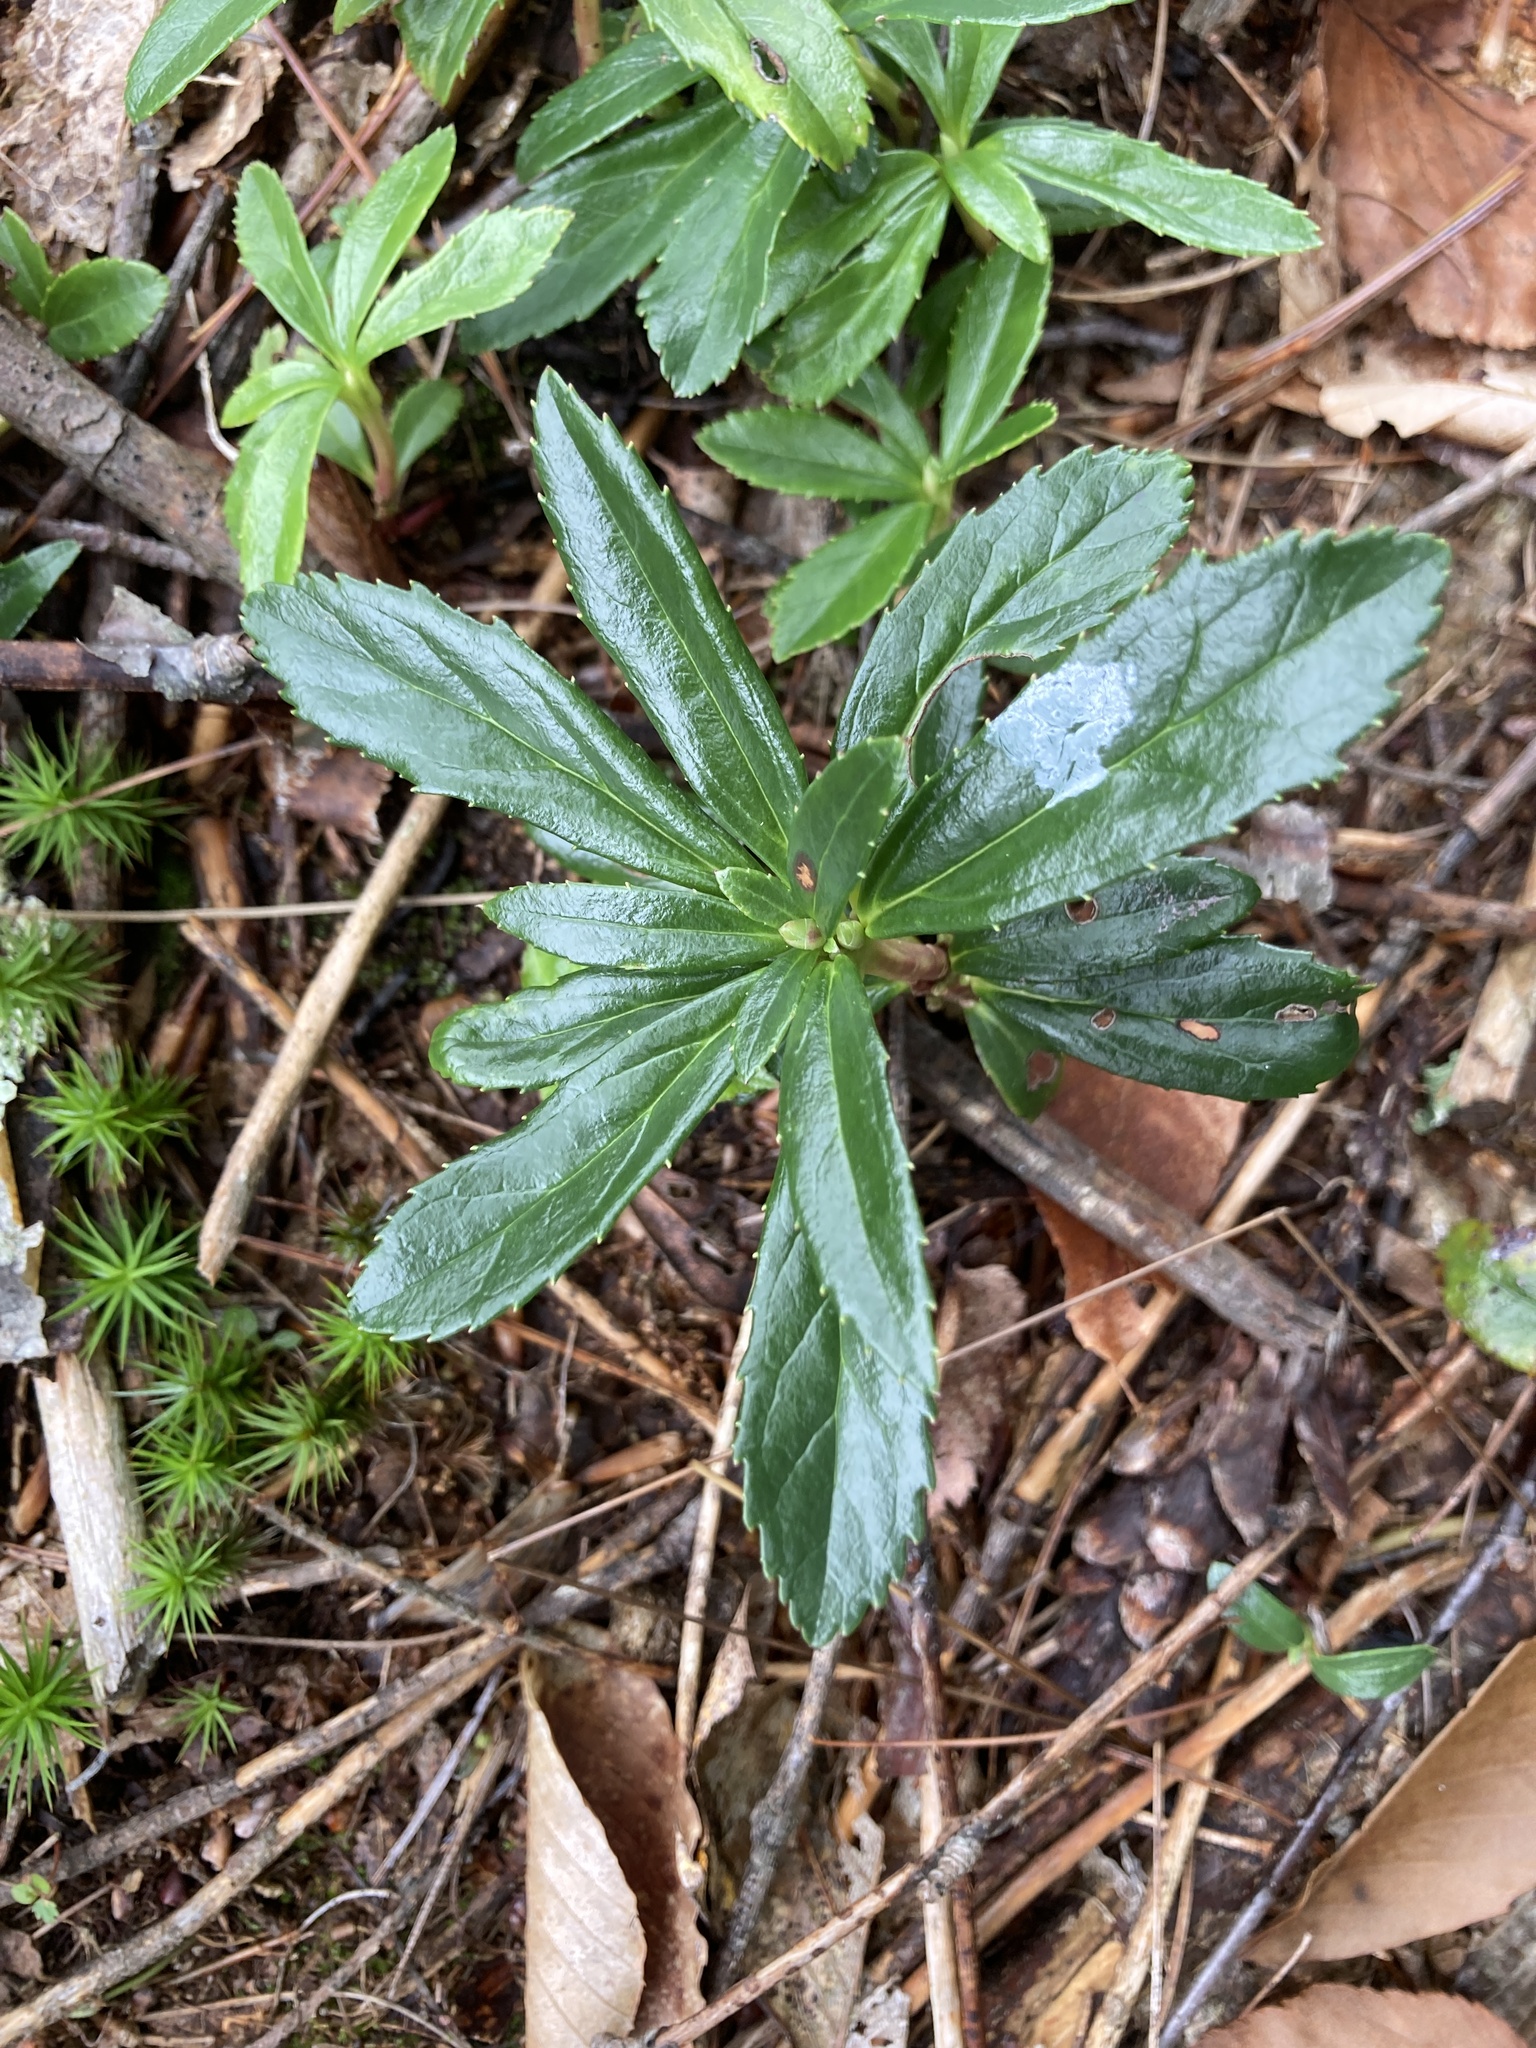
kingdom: Plantae
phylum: Tracheophyta
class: Magnoliopsida
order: Ericales
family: Ericaceae
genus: Chimaphila
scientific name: Chimaphila umbellata
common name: Pipsissewa
